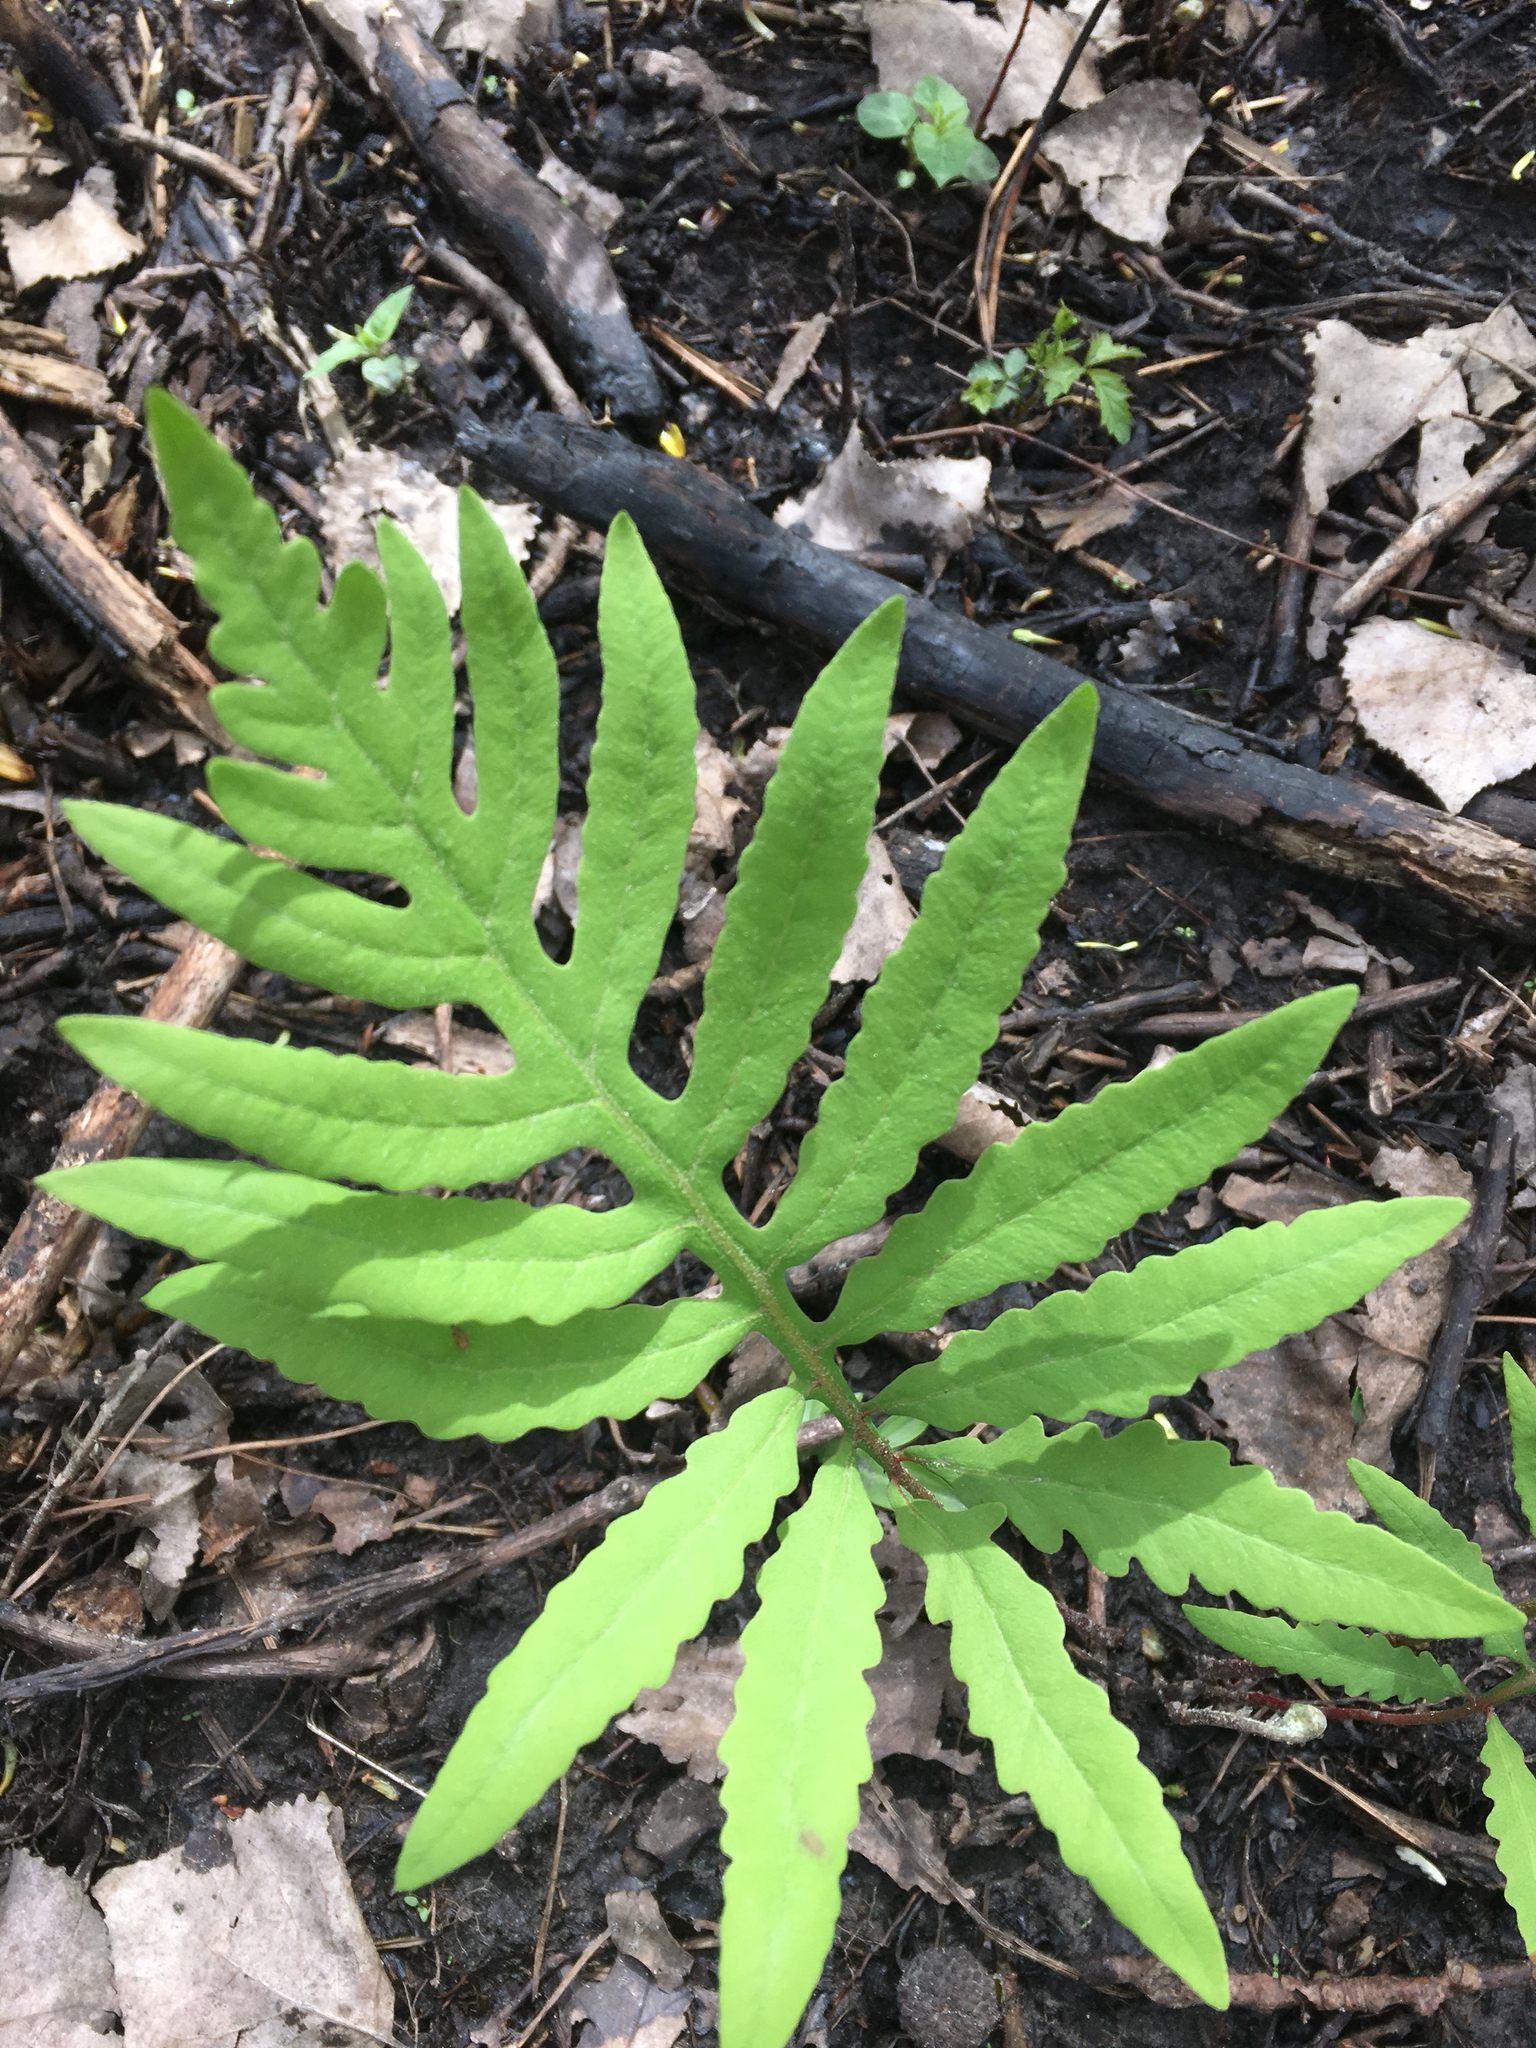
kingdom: Plantae
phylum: Tracheophyta
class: Polypodiopsida
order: Polypodiales
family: Onocleaceae
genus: Onoclea
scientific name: Onoclea sensibilis
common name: Sensitive fern
